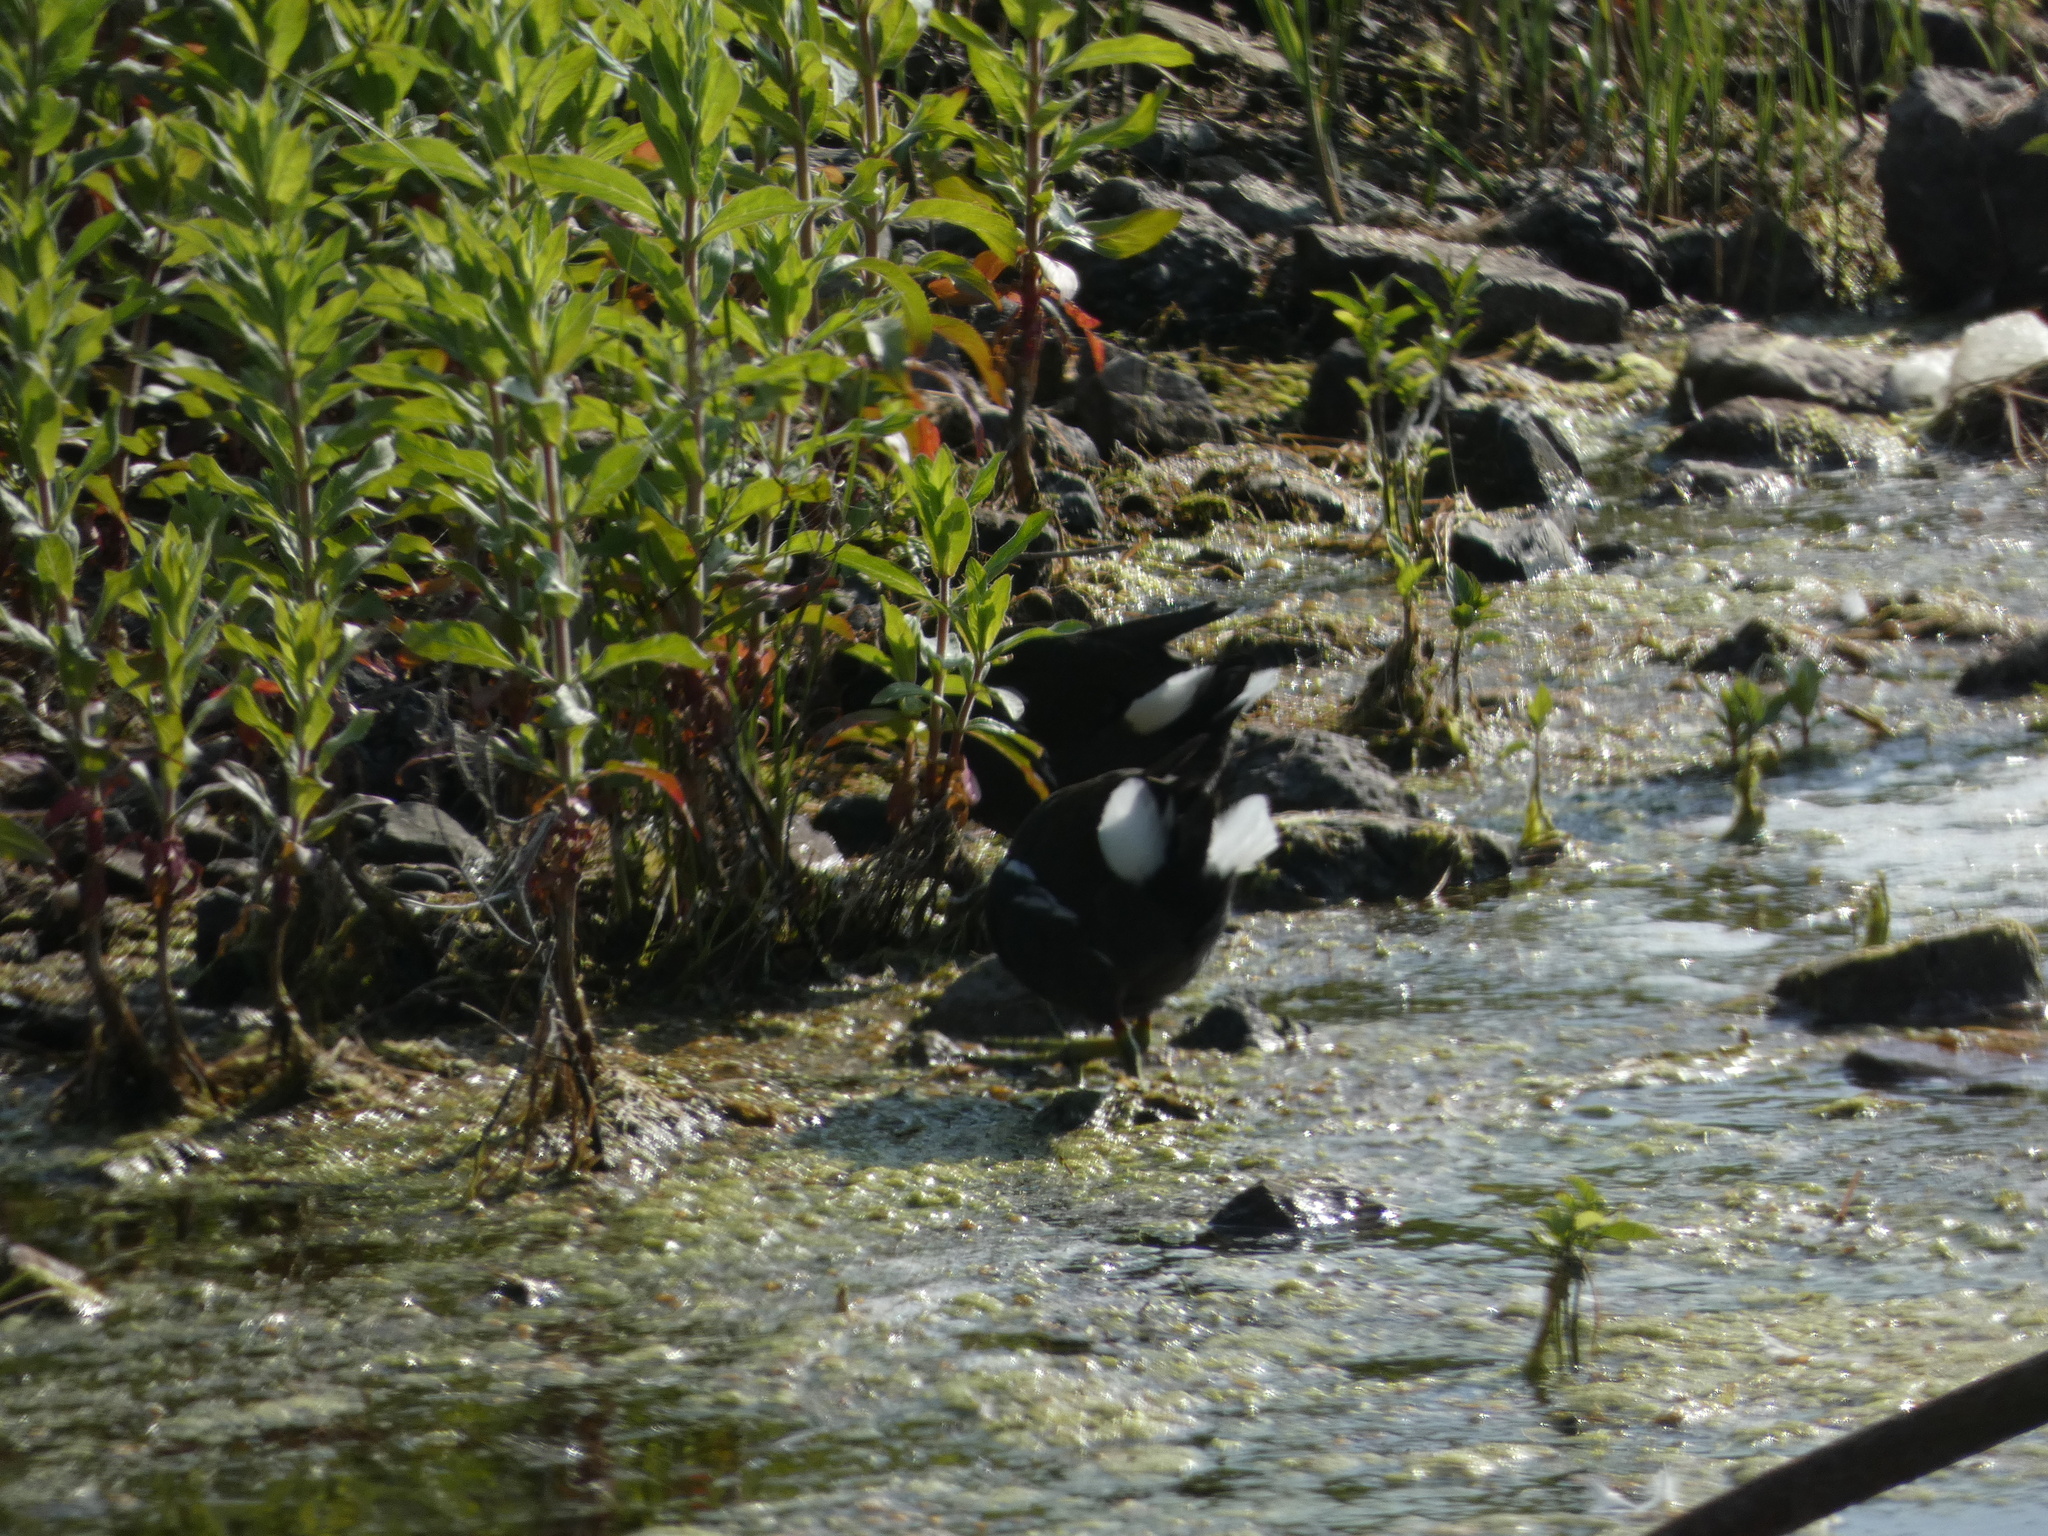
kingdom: Animalia
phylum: Chordata
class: Aves
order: Gruiformes
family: Rallidae
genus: Gallinula
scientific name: Gallinula chloropus
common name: Common moorhen
